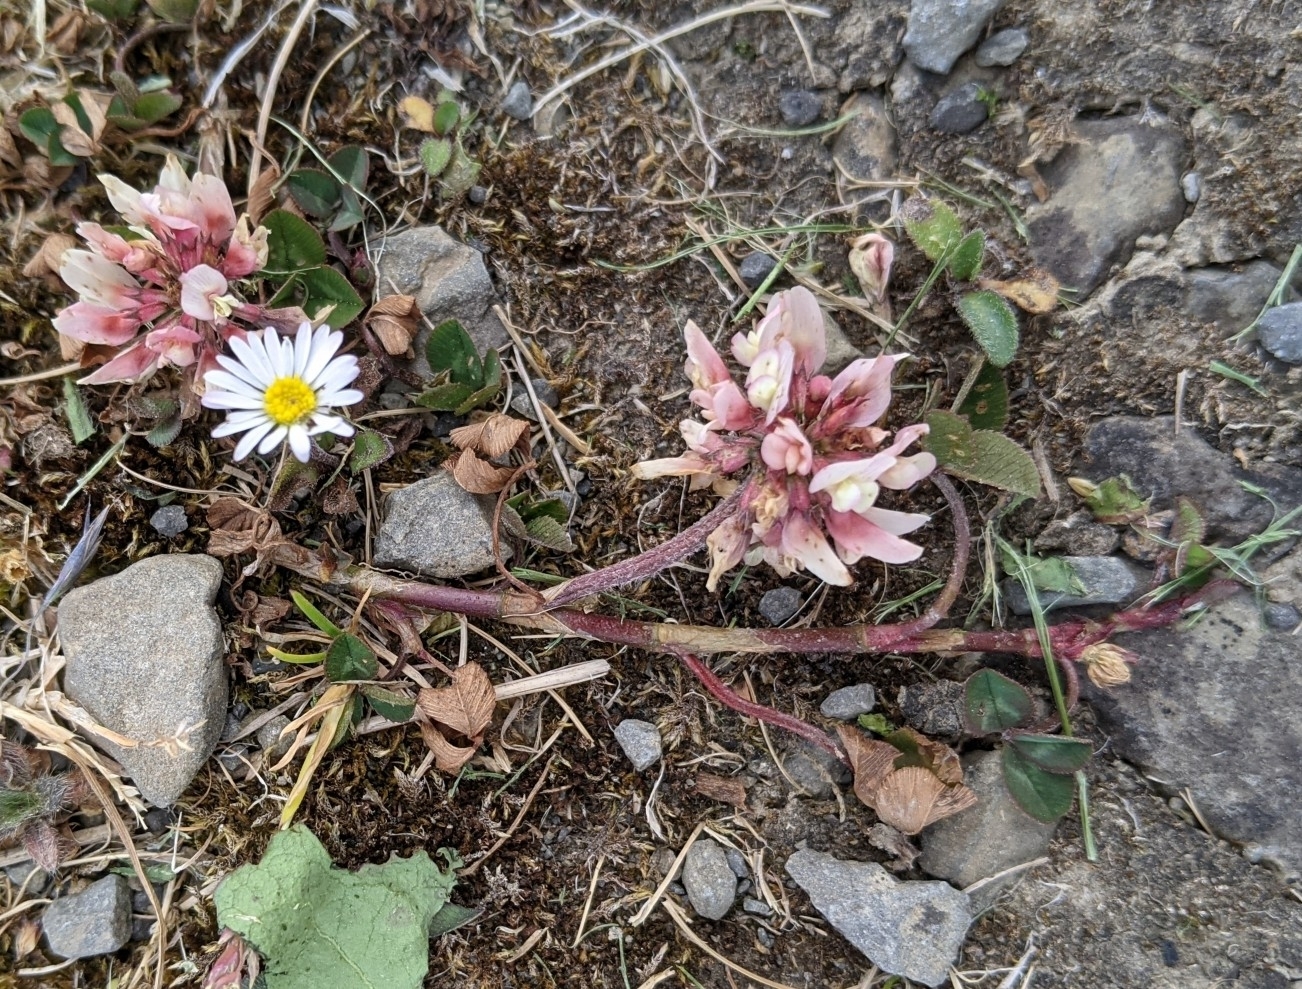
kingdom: Plantae
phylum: Tracheophyta
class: Magnoliopsida
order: Fabales
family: Fabaceae
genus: Trifolium
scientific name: Trifolium repens
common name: White clover
